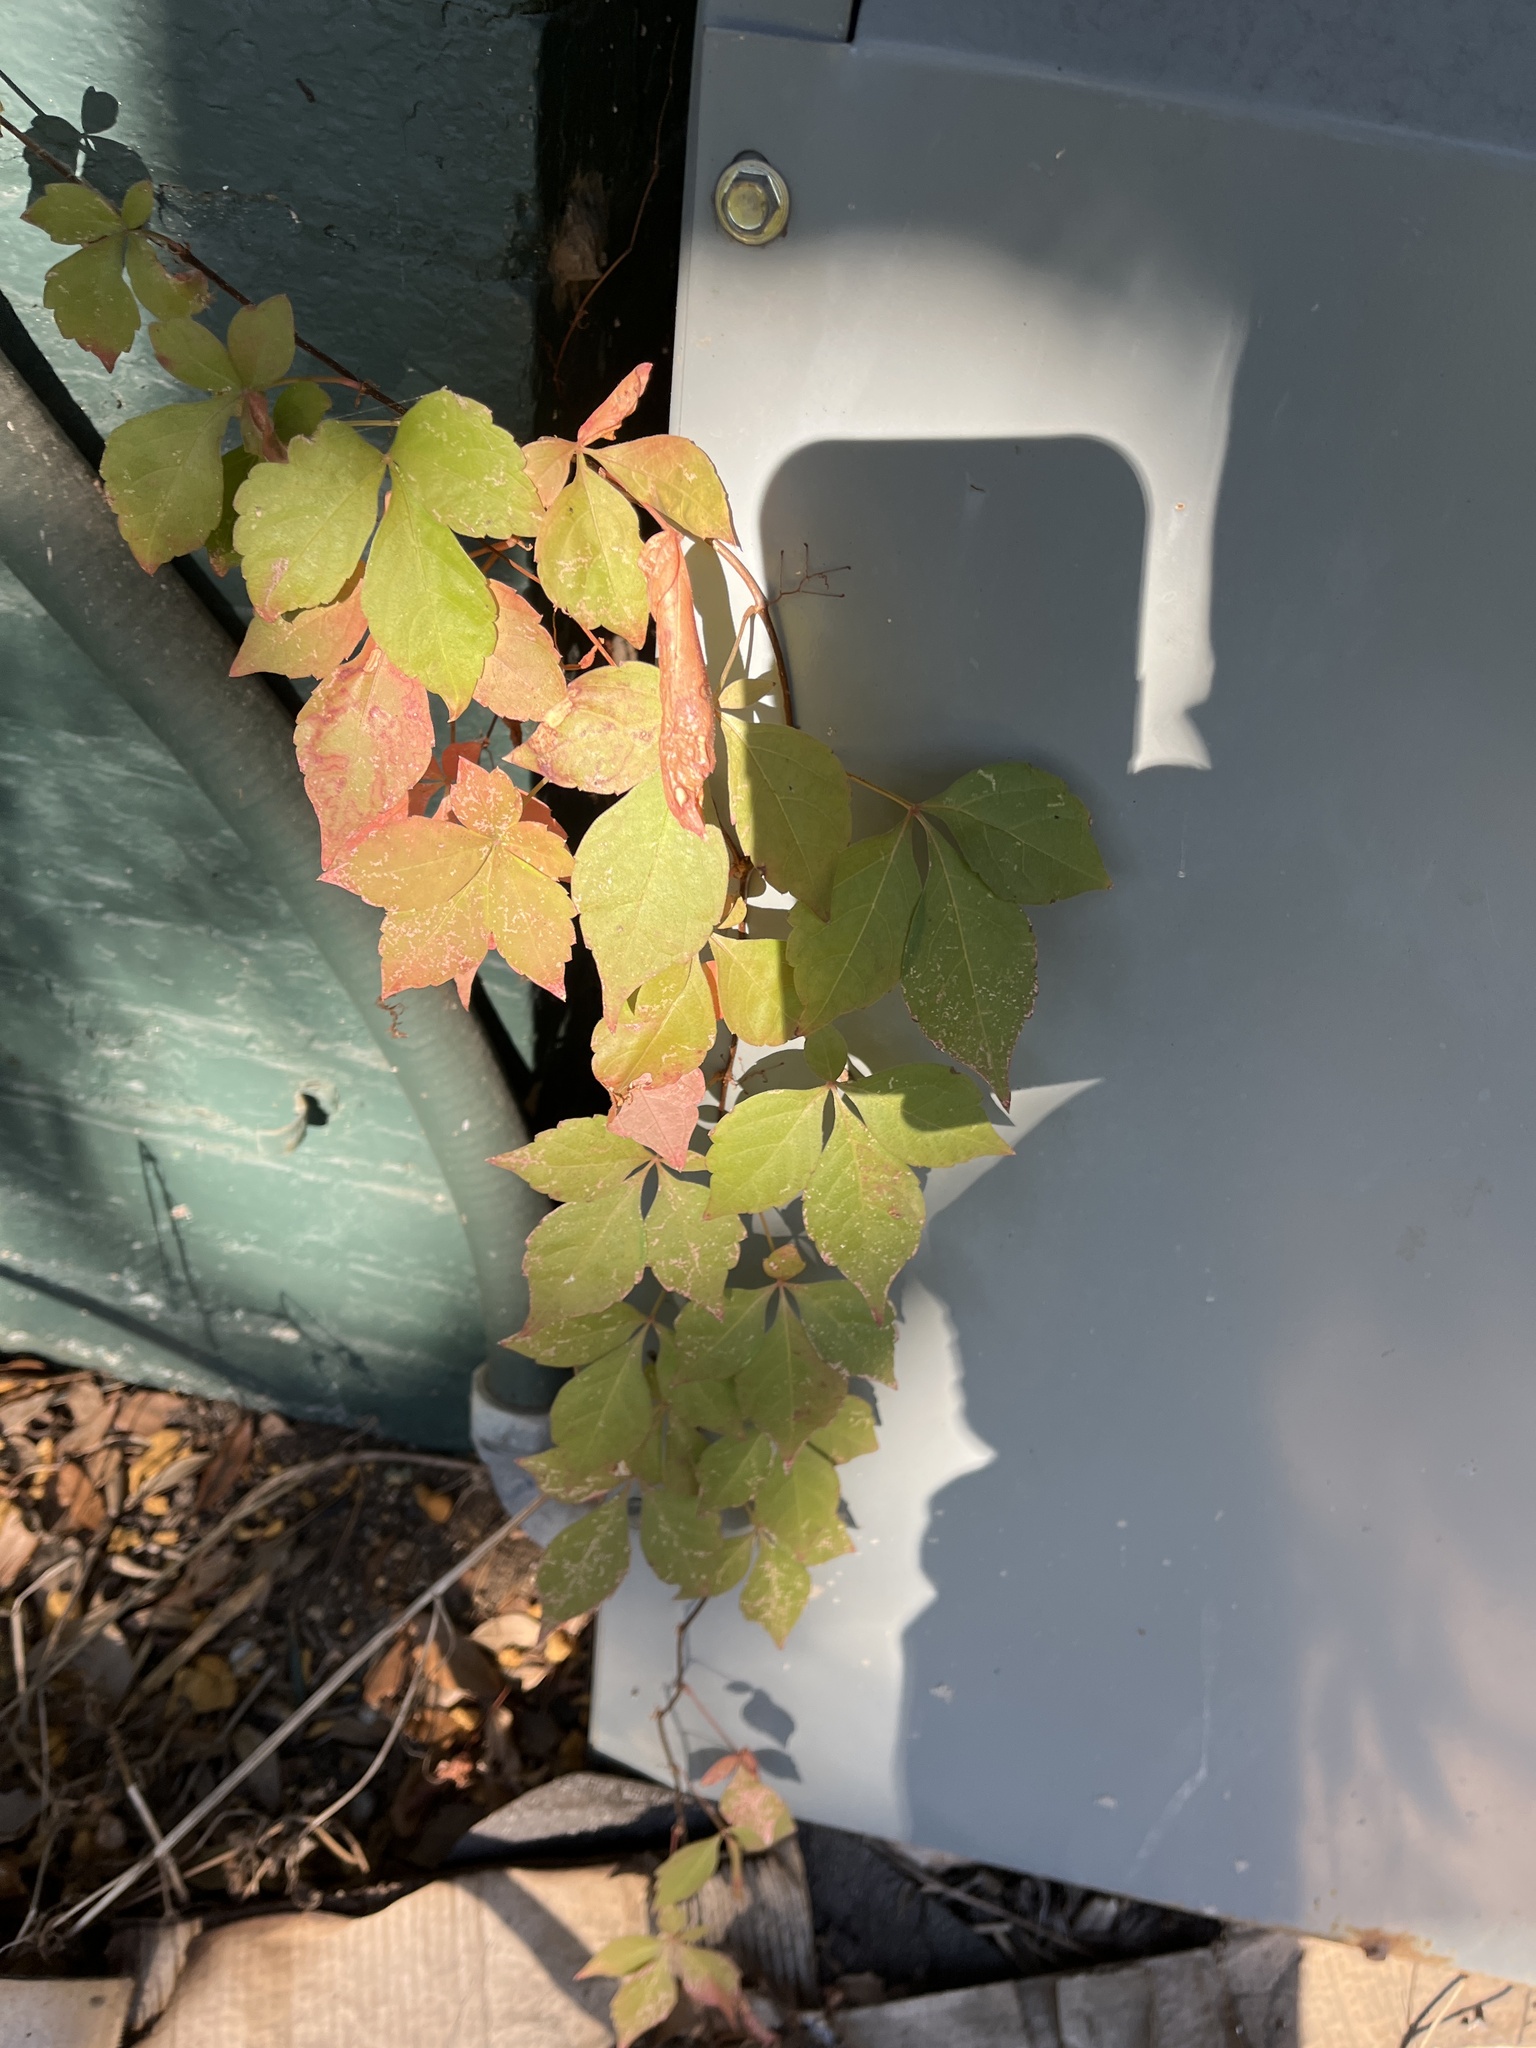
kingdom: Plantae
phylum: Tracheophyta
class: Magnoliopsida
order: Vitales
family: Vitaceae
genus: Parthenocissus
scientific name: Parthenocissus quinquefolia
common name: Virginia-creeper
